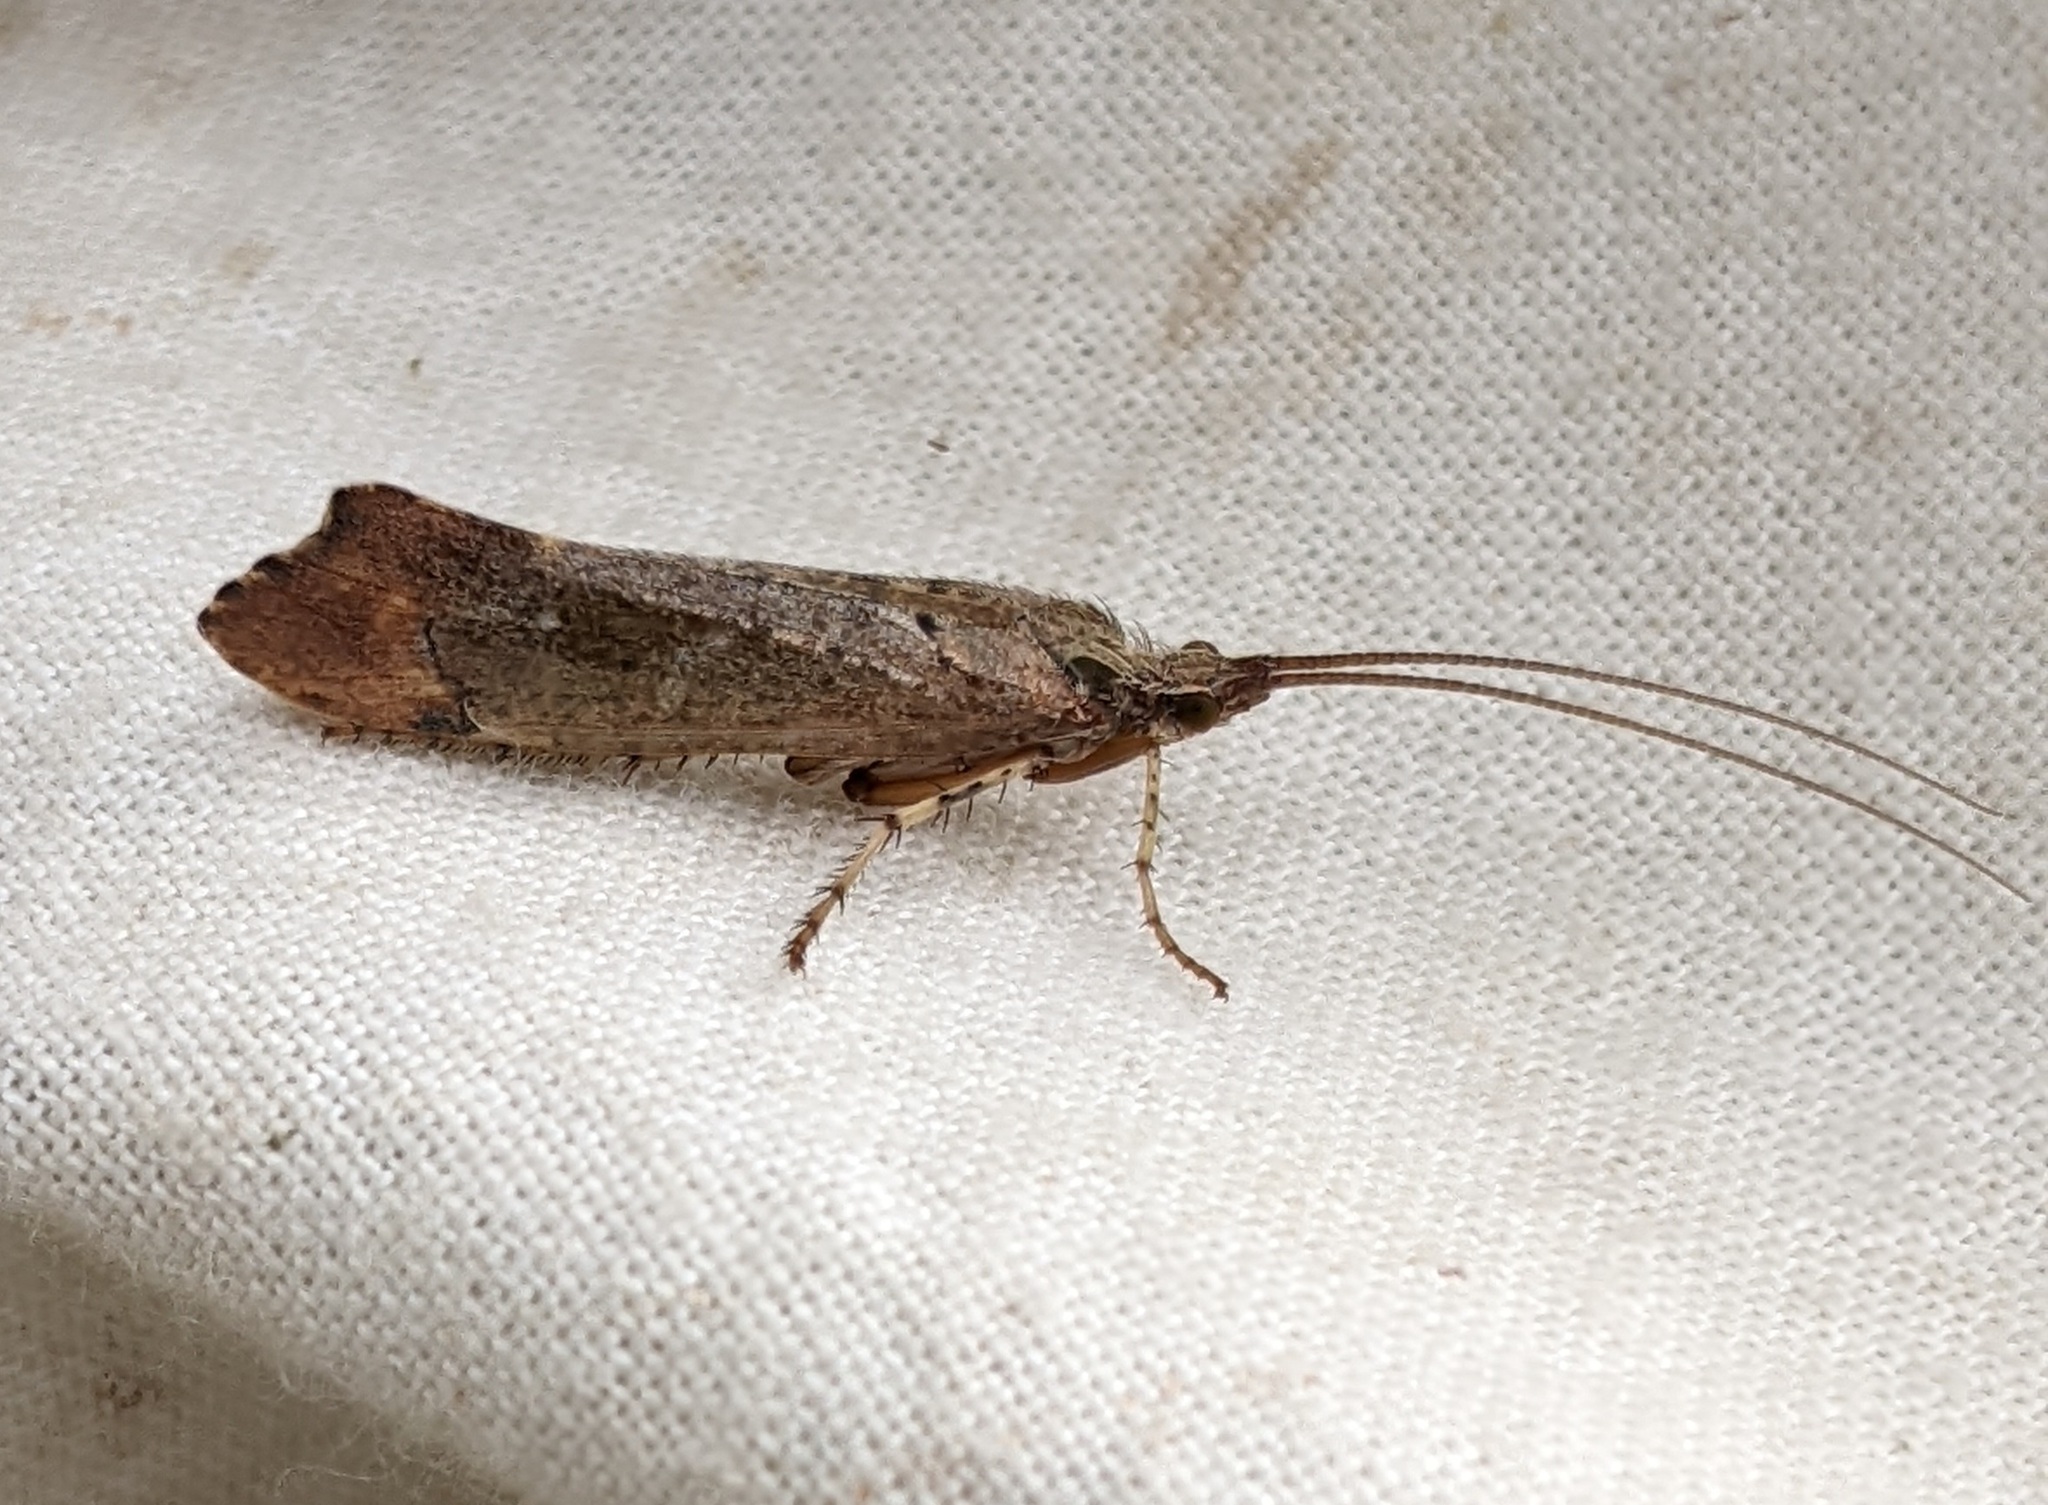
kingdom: Animalia
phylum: Arthropoda
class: Insecta
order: Trichoptera
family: Limnephilidae
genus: Glyphotaelius
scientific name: Glyphotaelius pellucidus
